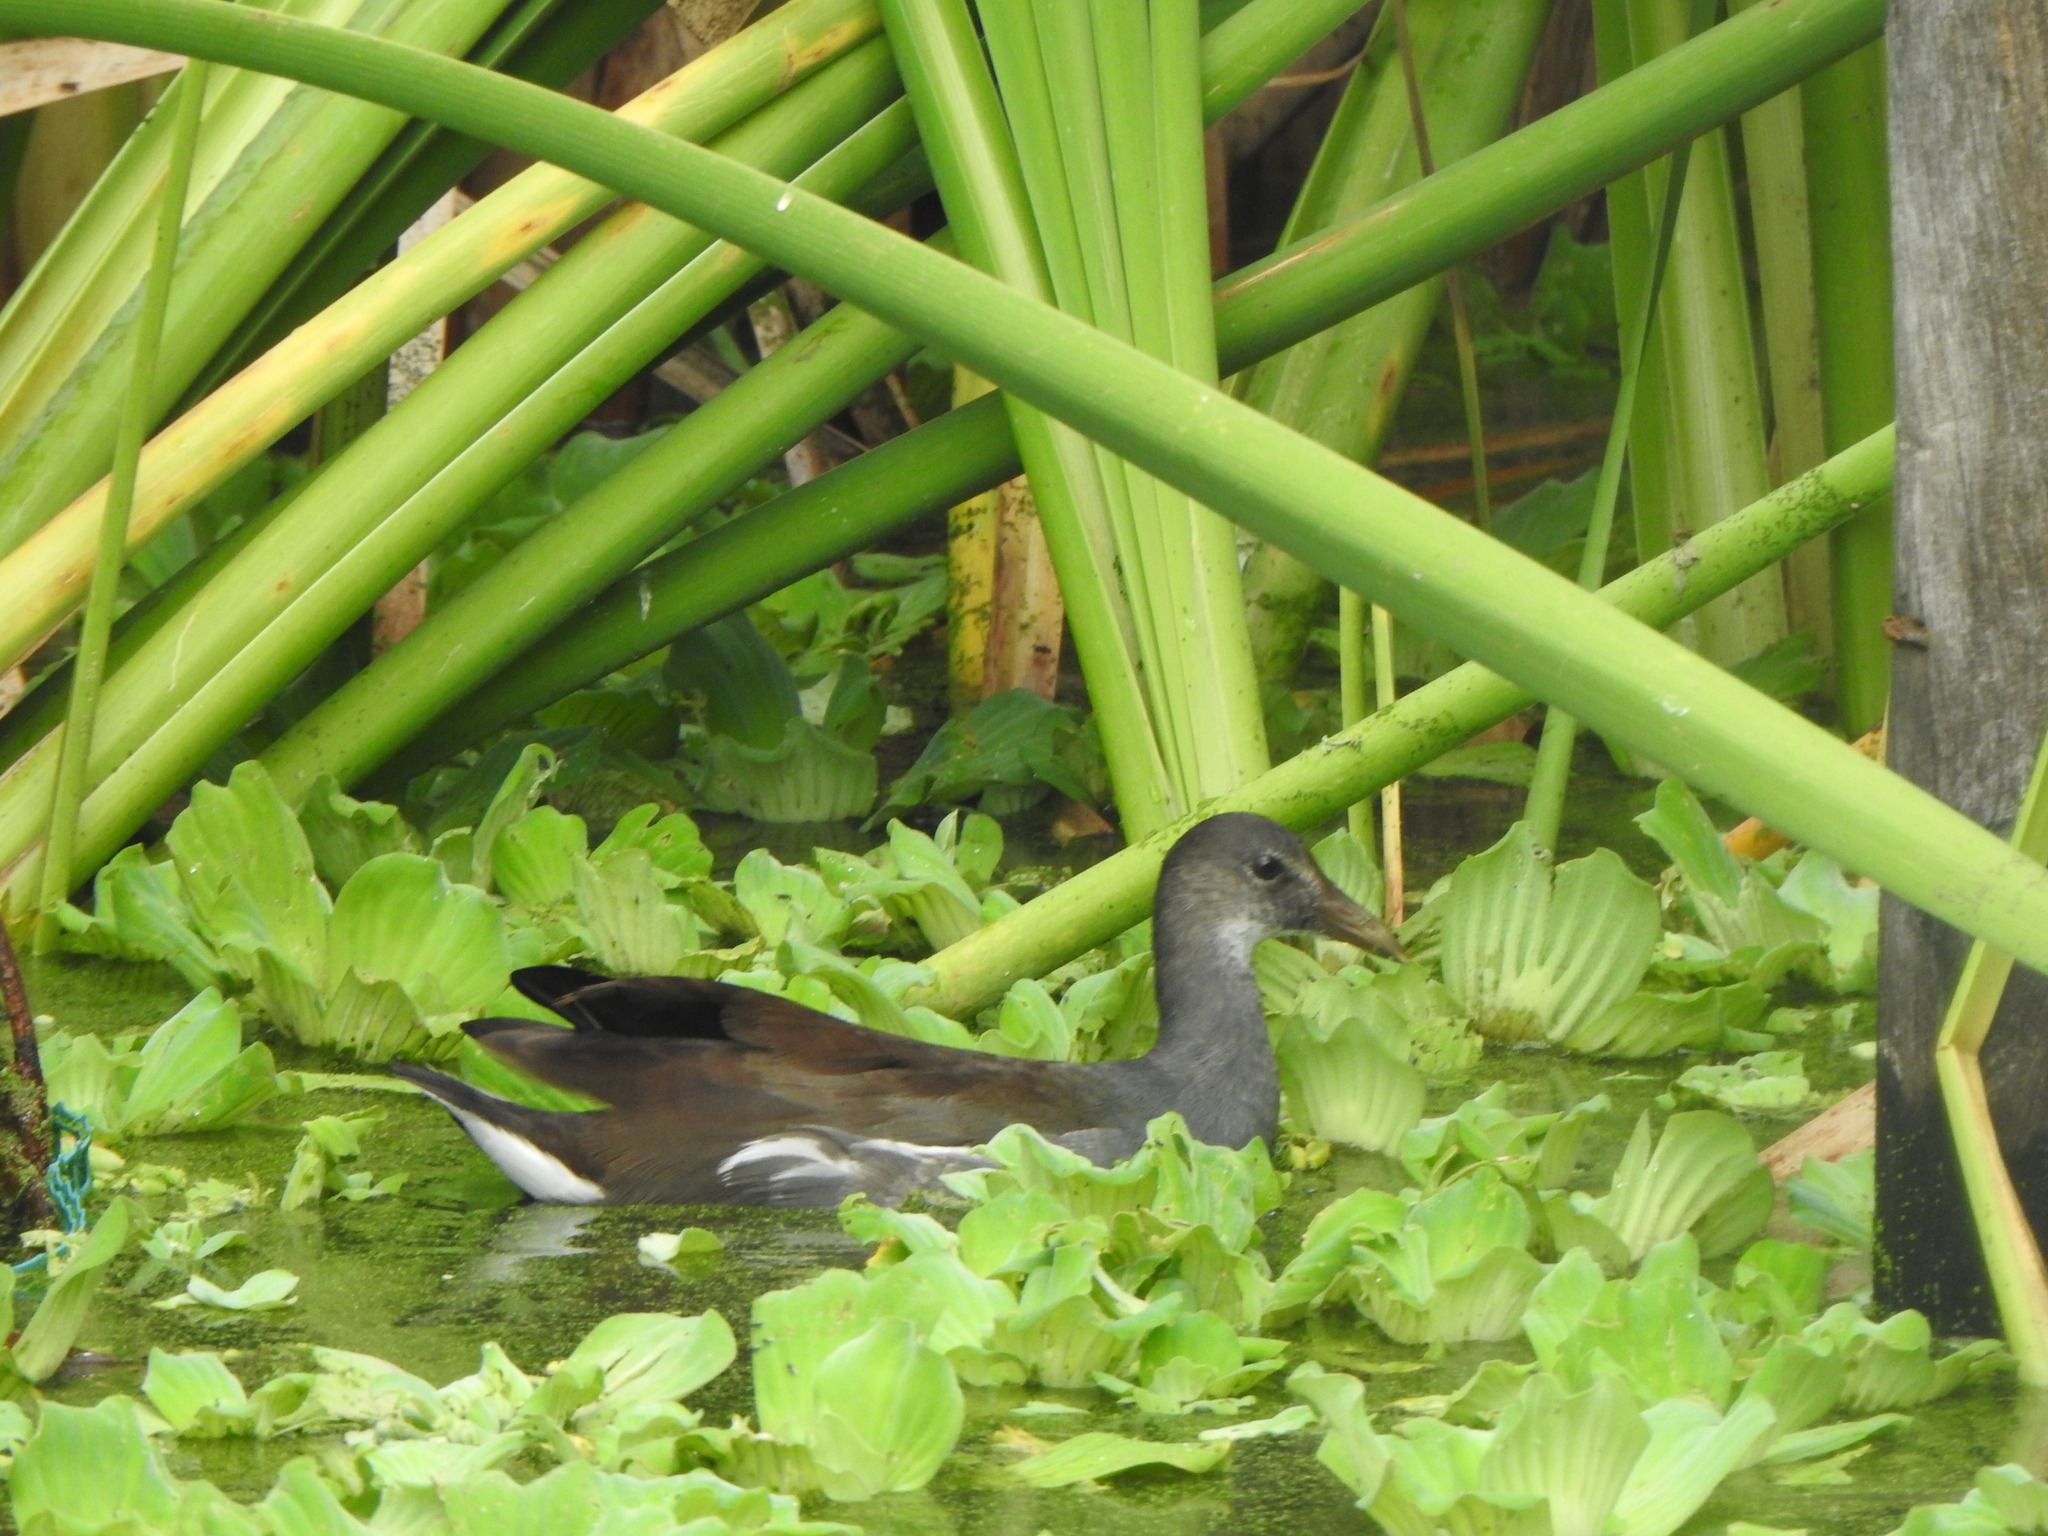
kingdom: Animalia
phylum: Chordata
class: Aves
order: Gruiformes
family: Rallidae
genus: Gallinula
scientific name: Gallinula chloropus
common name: Common moorhen
